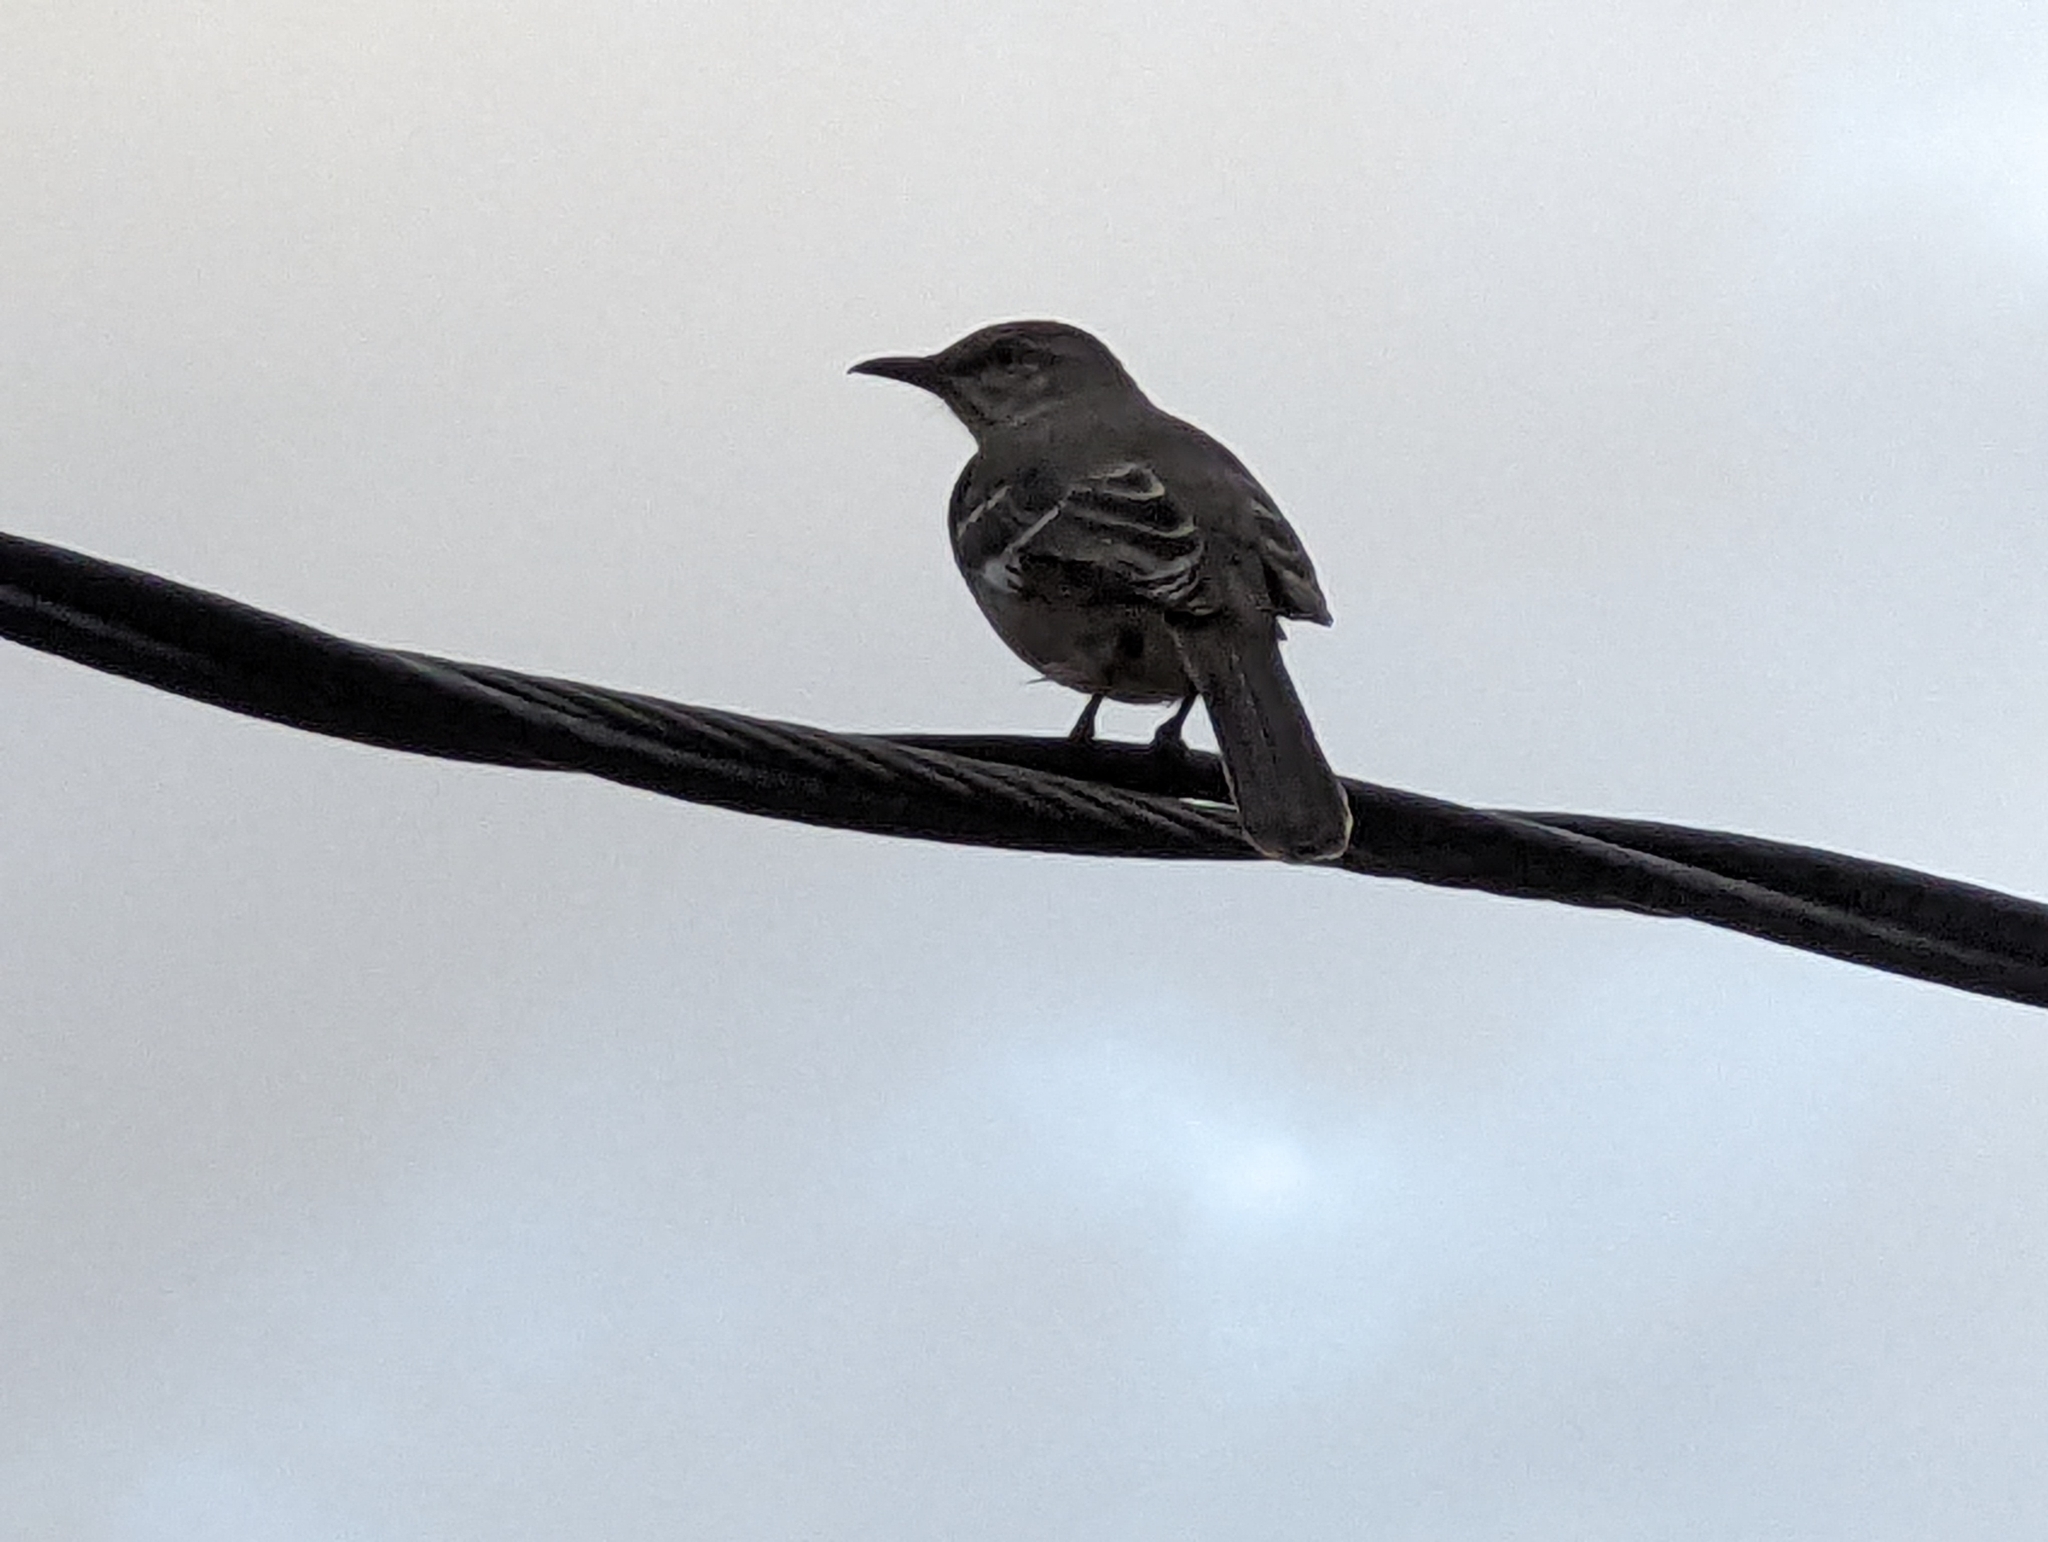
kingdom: Animalia
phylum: Chordata
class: Aves
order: Passeriformes
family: Mimidae
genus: Mimus
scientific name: Mimus polyglottos
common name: Northern mockingbird
